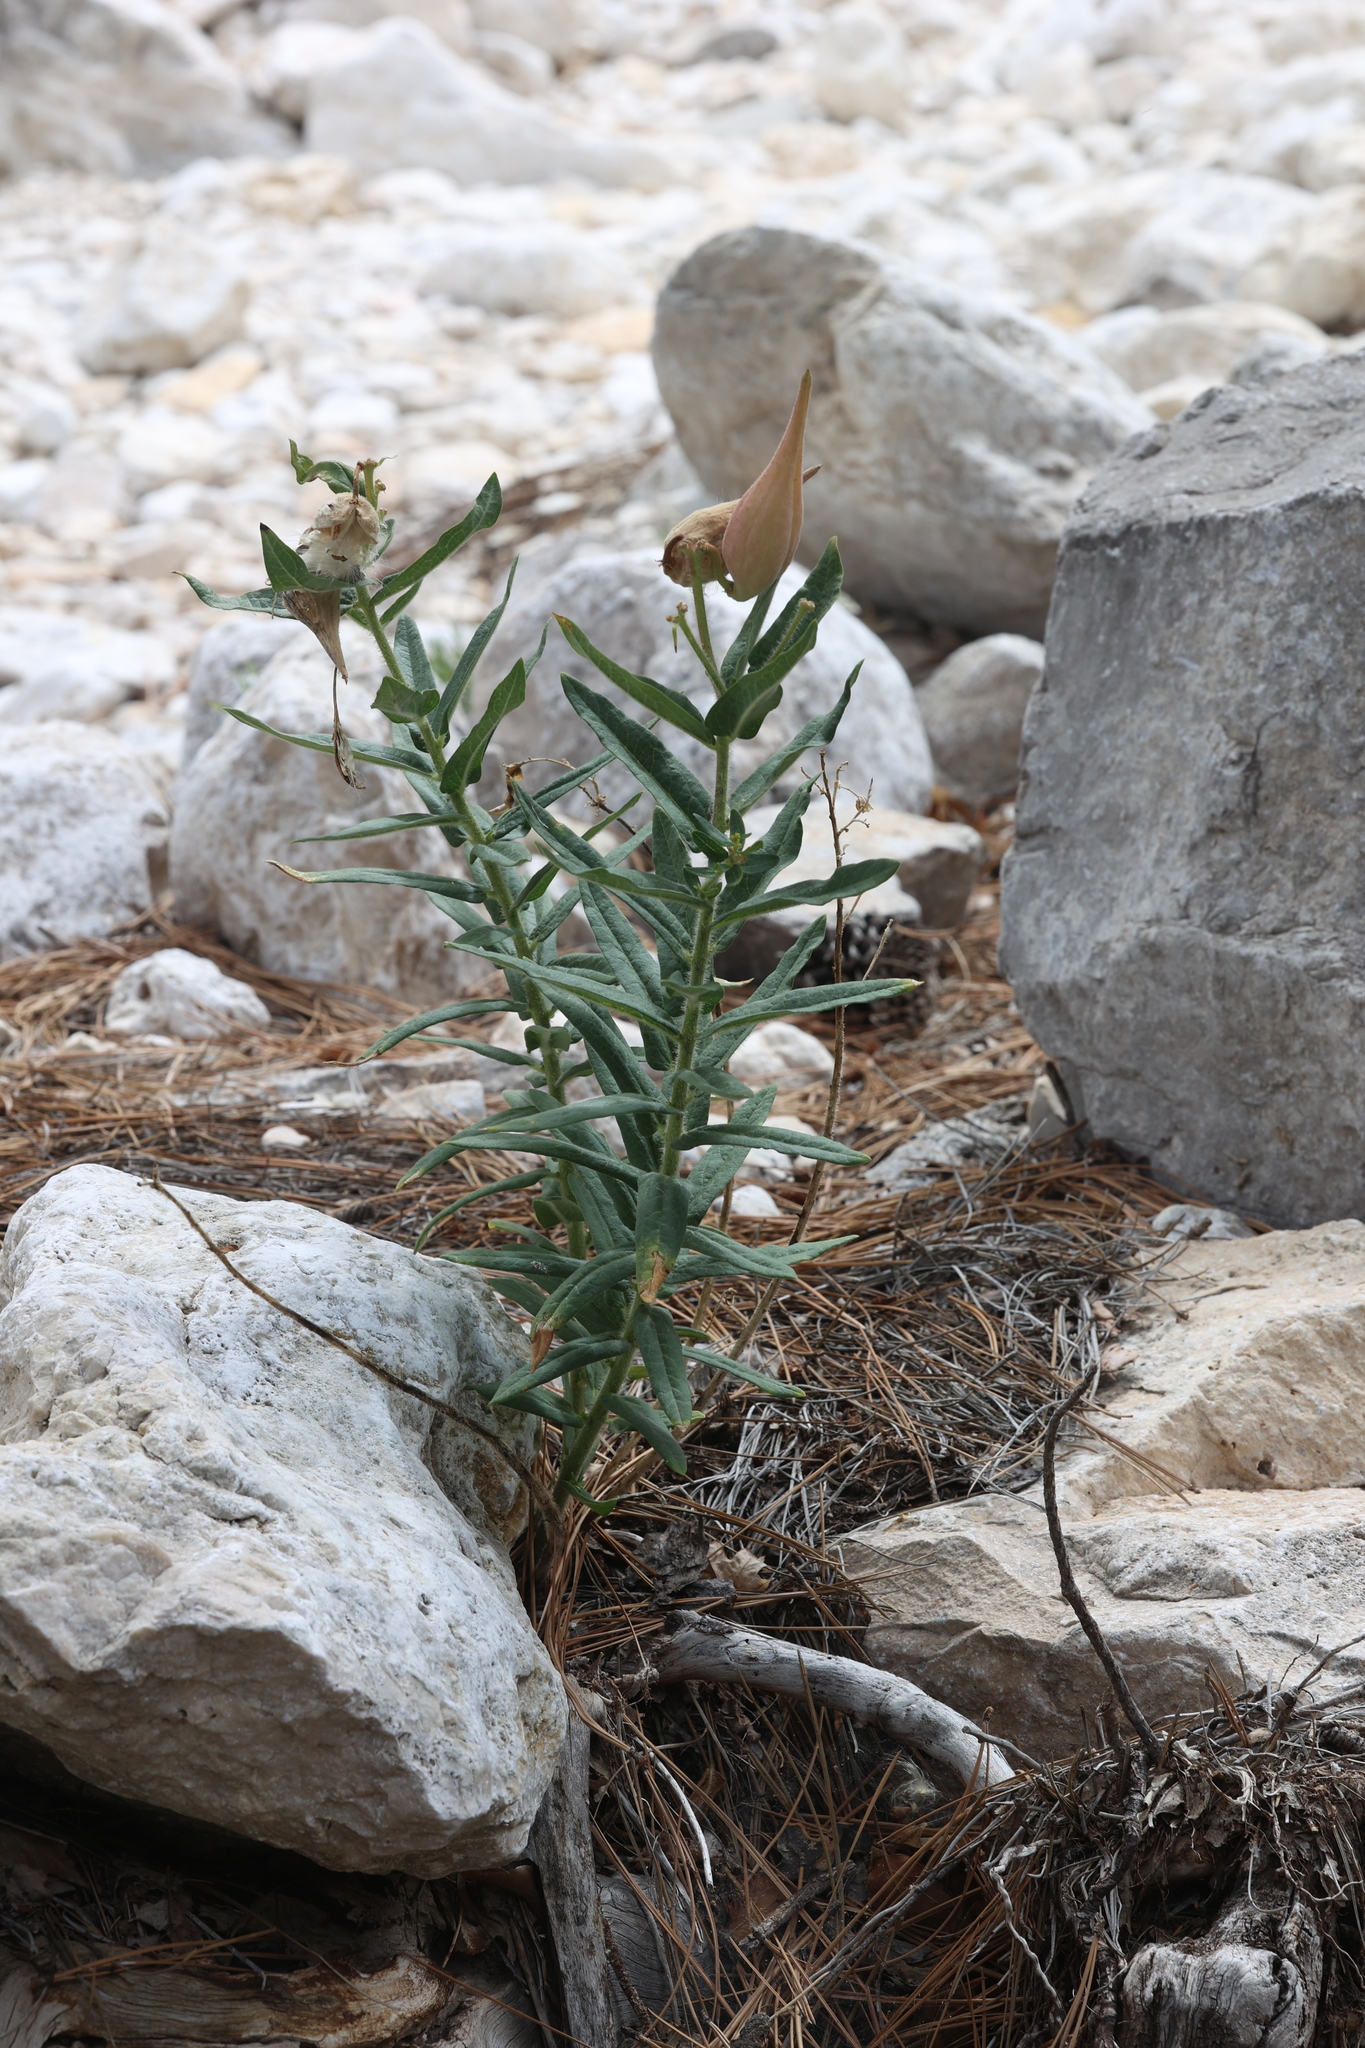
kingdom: Plantae
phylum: Tracheophyta
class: Magnoliopsida
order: Gentianales
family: Apocynaceae
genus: Asclepias
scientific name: Asclepias tuberosa
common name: Butterfly milkweed
